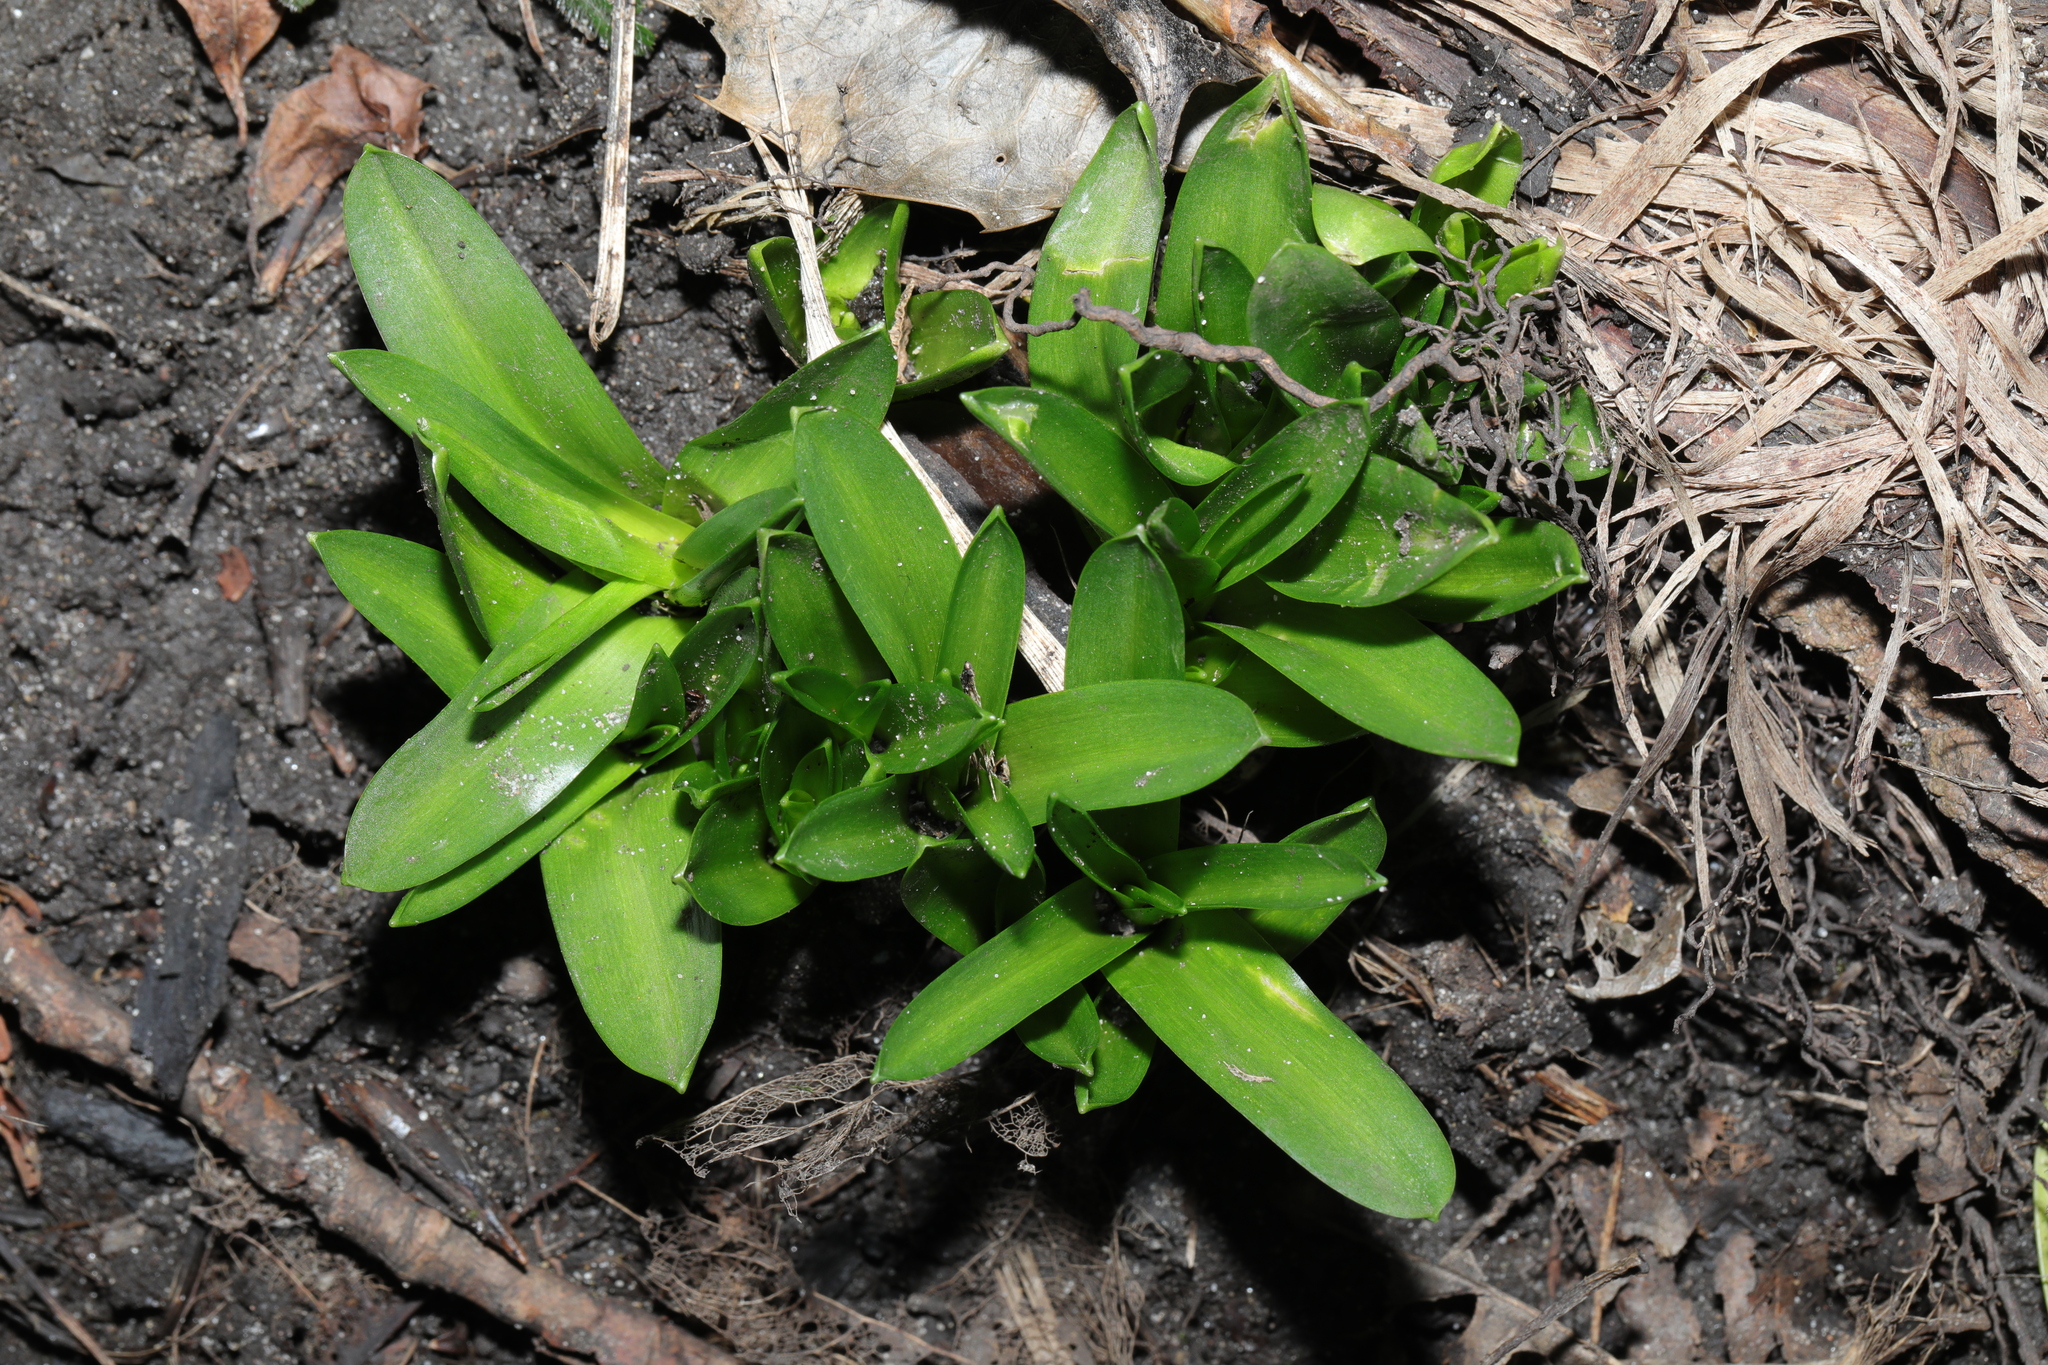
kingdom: Plantae
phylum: Tracheophyta
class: Liliopsida
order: Asparagales
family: Asparagaceae
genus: Hyacinthoides
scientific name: Hyacinthoides massartiana
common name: Hyacinthoides
